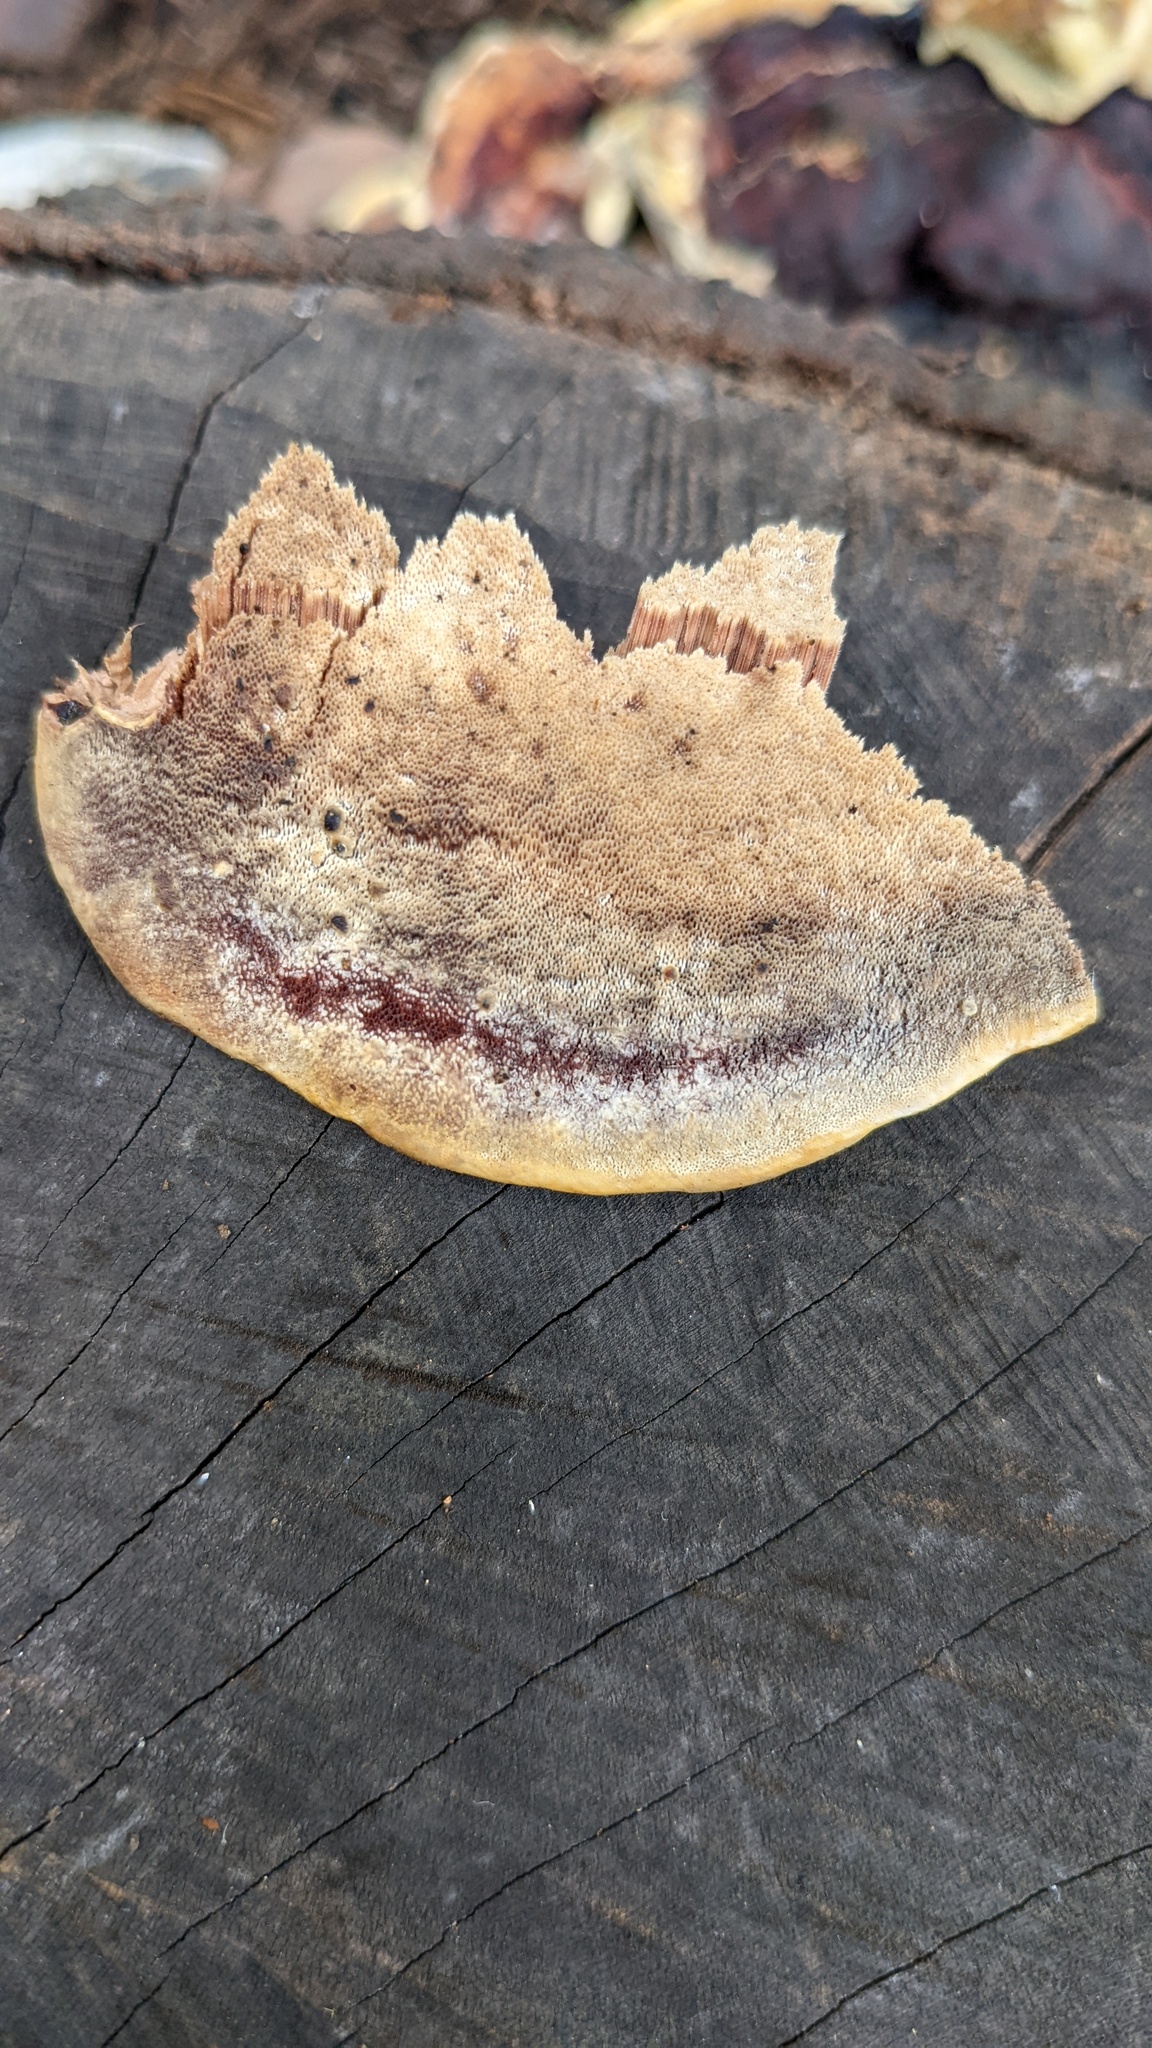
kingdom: Fungi
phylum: Basidiomycota
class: Agaricomycetes
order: Polyporales
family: Polyporaceae
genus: Vanderbylia
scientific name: Vanderbylia fraxinea
